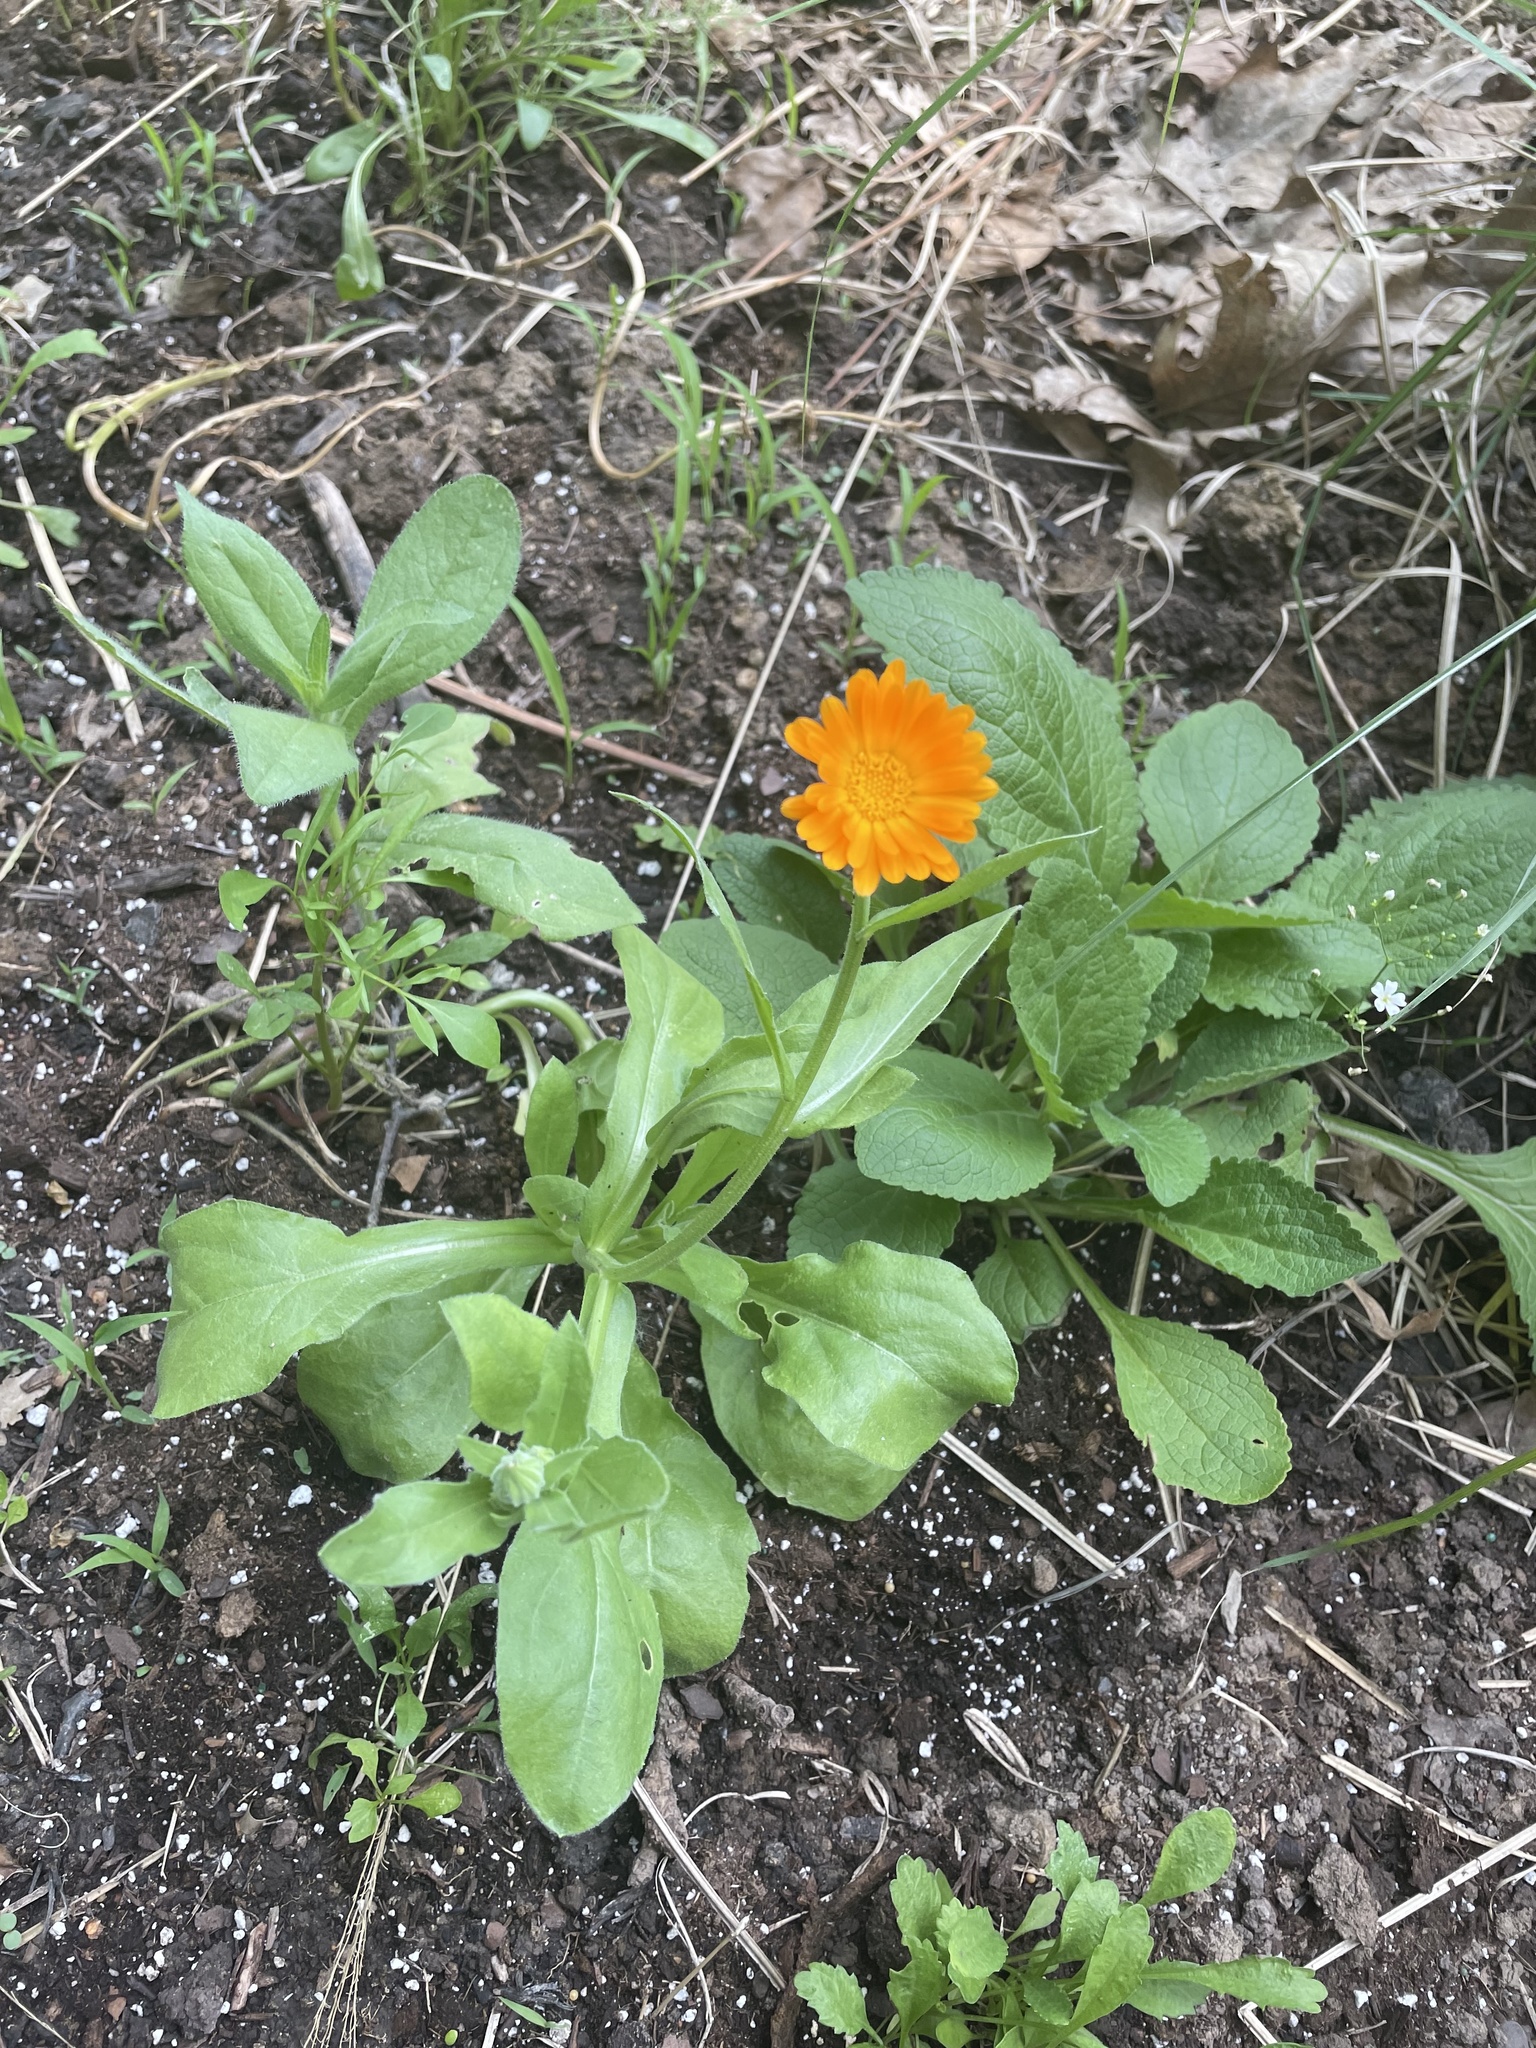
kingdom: Plantae
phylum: Tracheophyta
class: Magnoliopsida
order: Asterales
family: Asteraceae
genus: Calendula
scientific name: Calendula officinalis
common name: Pot marigold
